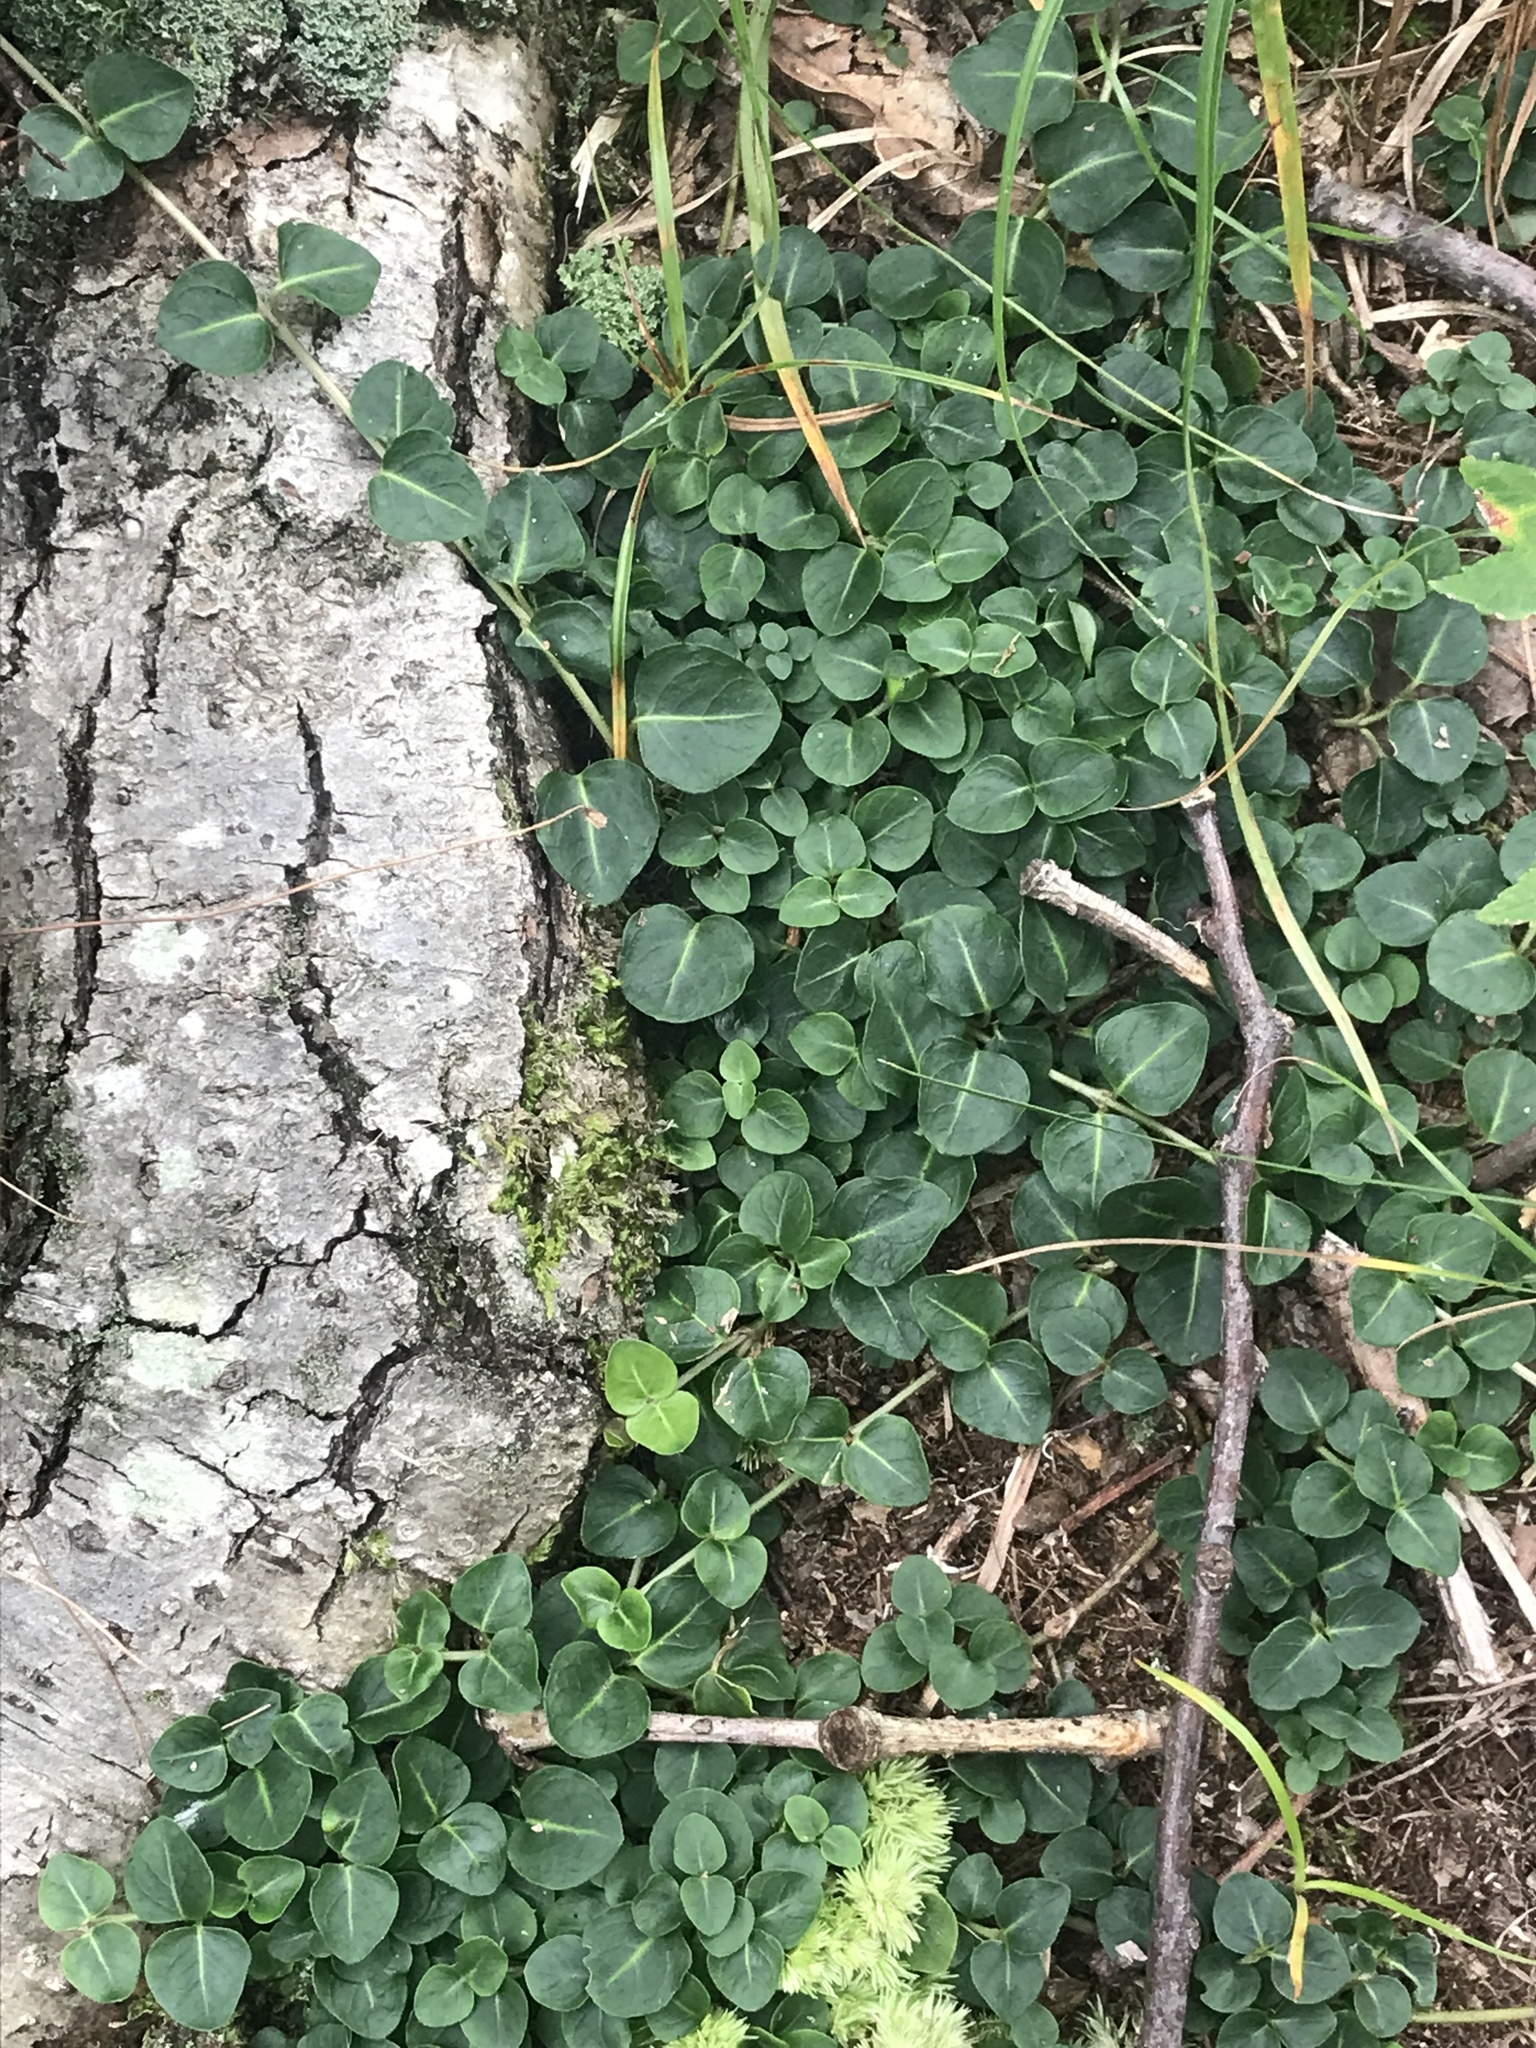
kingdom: Plantae
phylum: Tracheophyta
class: Magnoliopsida
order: Gentianales
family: Rubiaceae
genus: Mitchella
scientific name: Mitchella repens
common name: Partridge-berry
